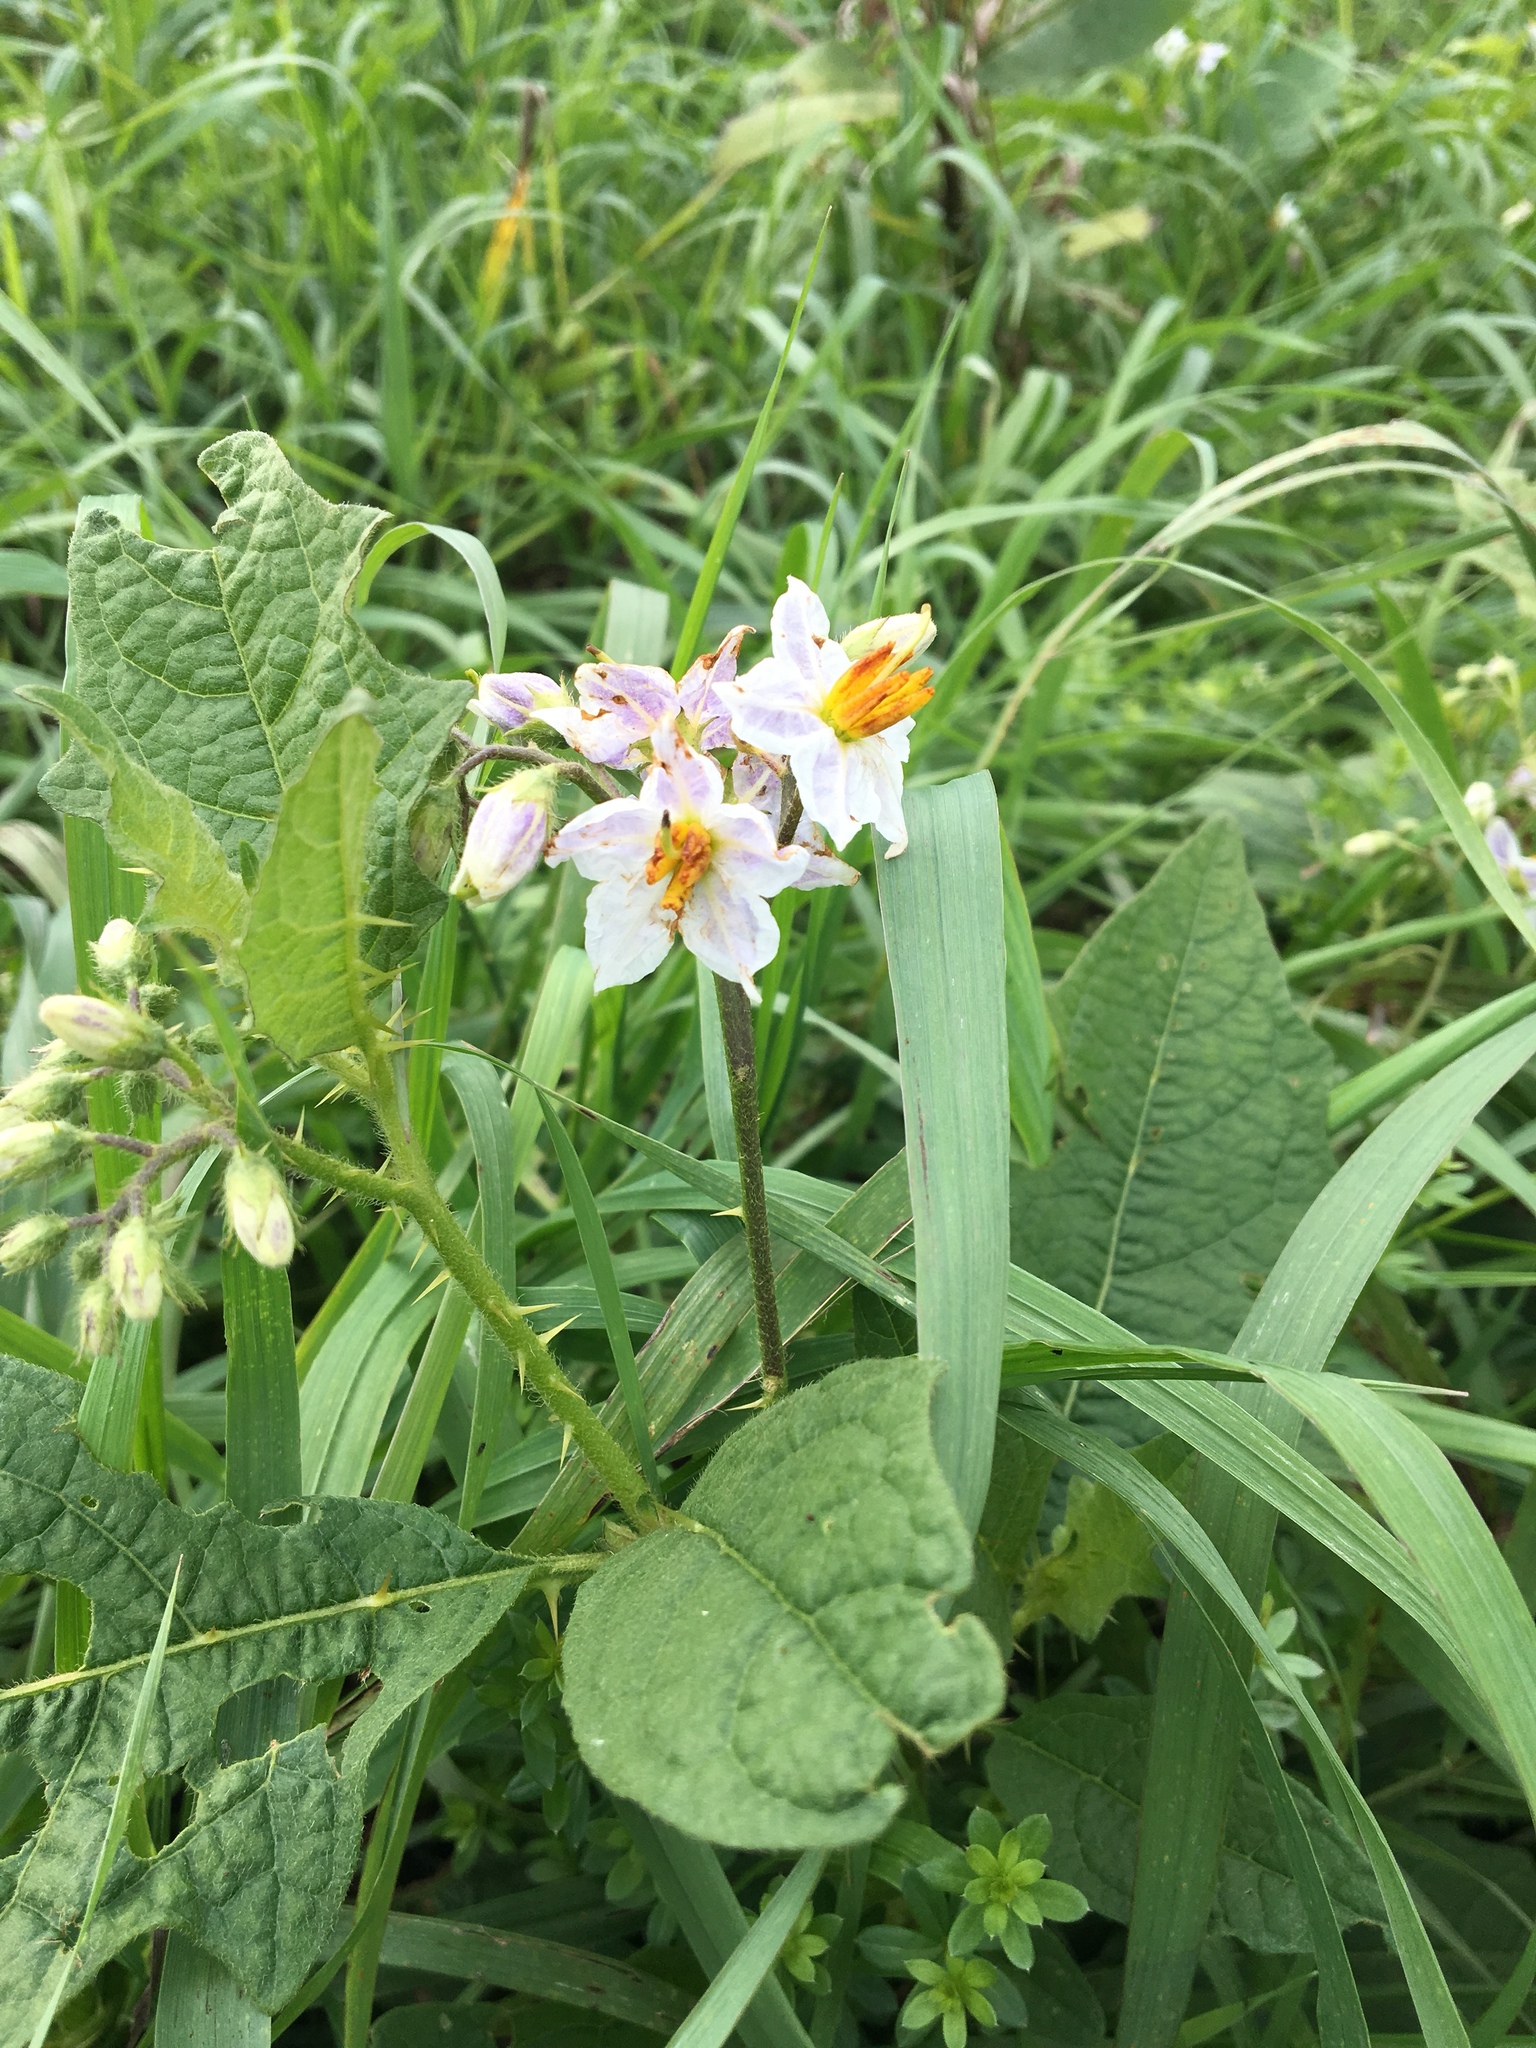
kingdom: Plantae
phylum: Tracheophyta
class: Magnoliopsida
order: Solanales
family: Solanaceae
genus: Solanum
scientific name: Solanum carolinense
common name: Horse-nettle
